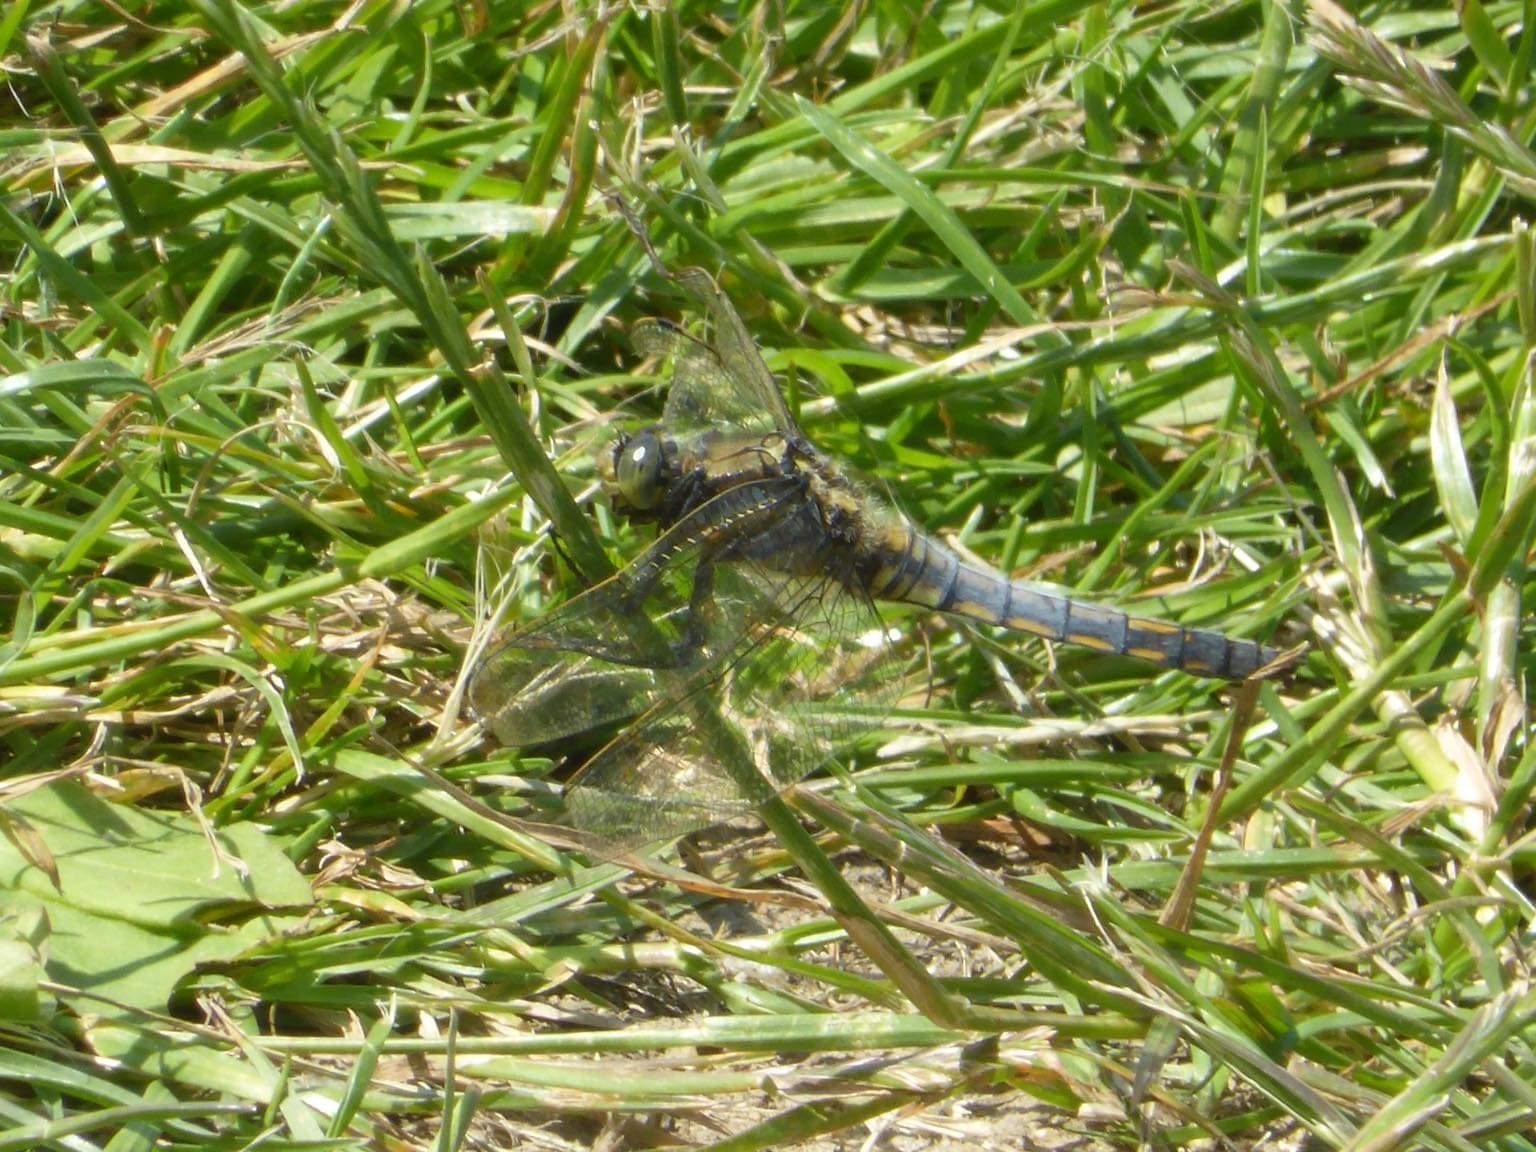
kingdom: Animalia
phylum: Arthropoda
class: Insecta
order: Odonata
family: Libellulidae
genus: Orthetrum
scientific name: Orthetrum cancellatum
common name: Black-tailed skimmer
